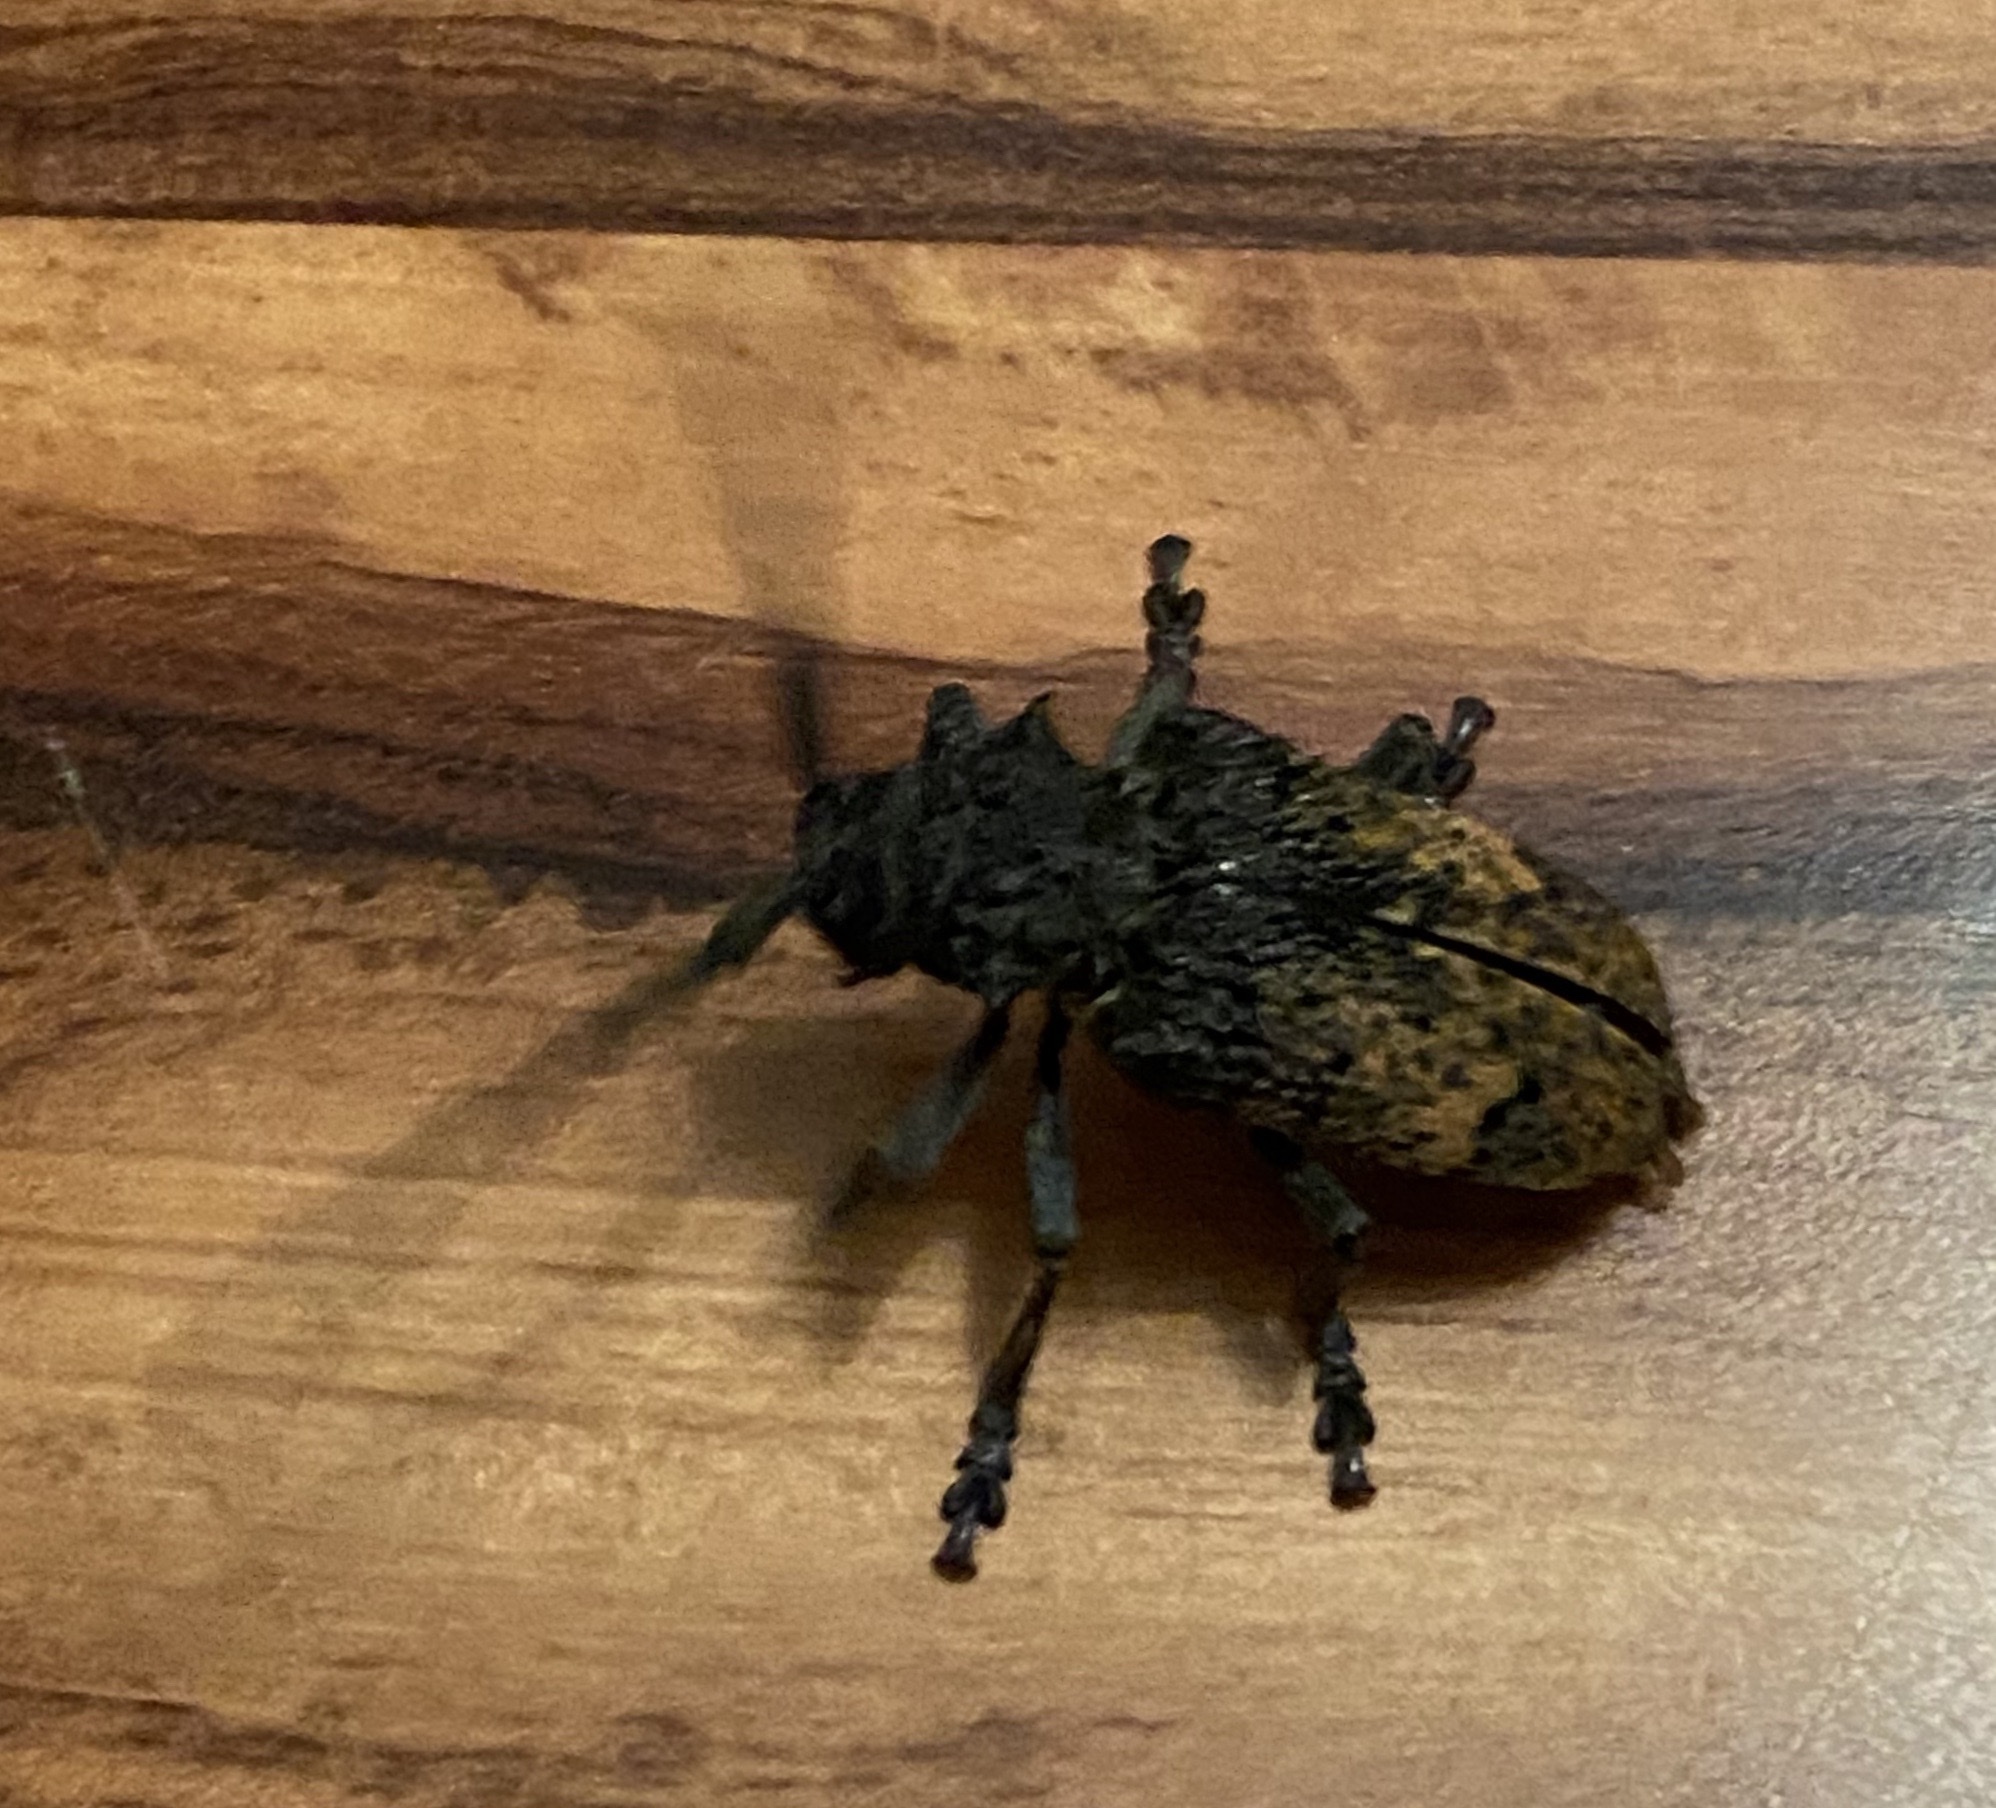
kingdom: Animalia
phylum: Arthropoda
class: Insecta
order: Coleoptera
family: Cerambycidae
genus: Phryneta
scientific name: Phryneta spinator
